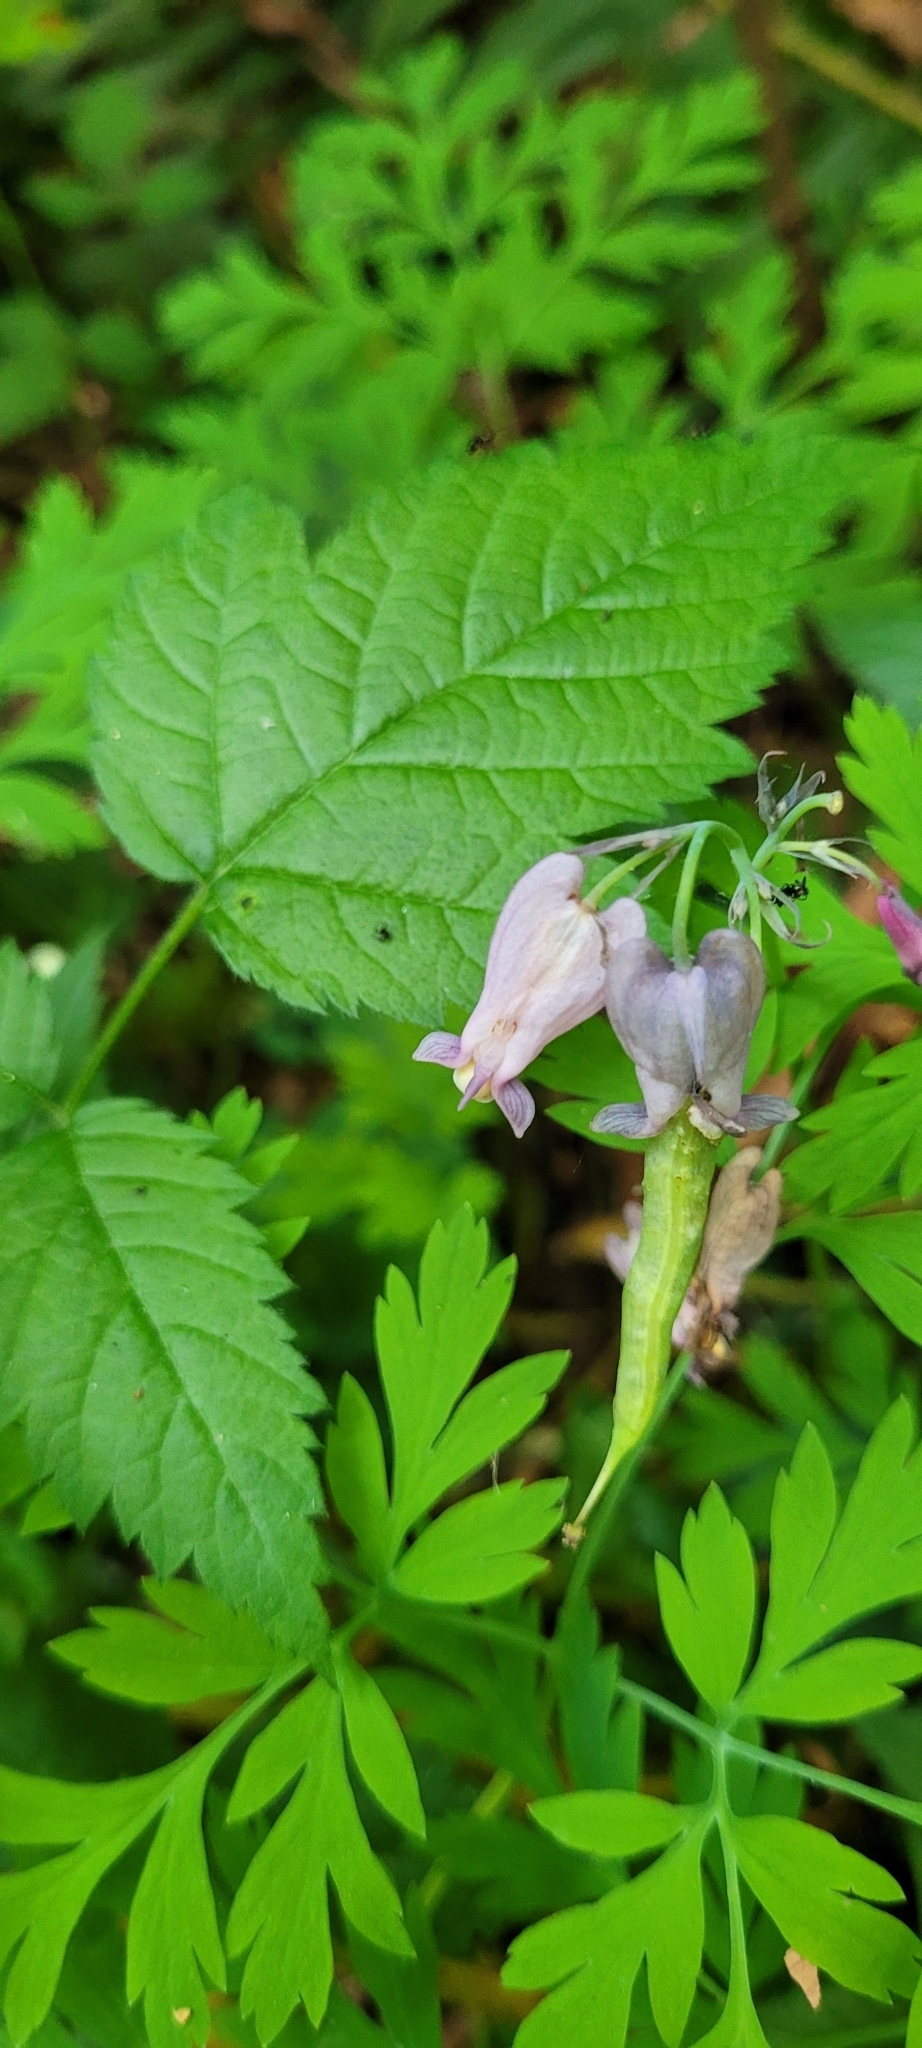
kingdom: Plantae
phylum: Tracheophyta
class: Magnoliopsida
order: Ranunculales
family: Papaveraceae
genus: Dicentra
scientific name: Dicentra formosa
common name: Bleeding-heart
